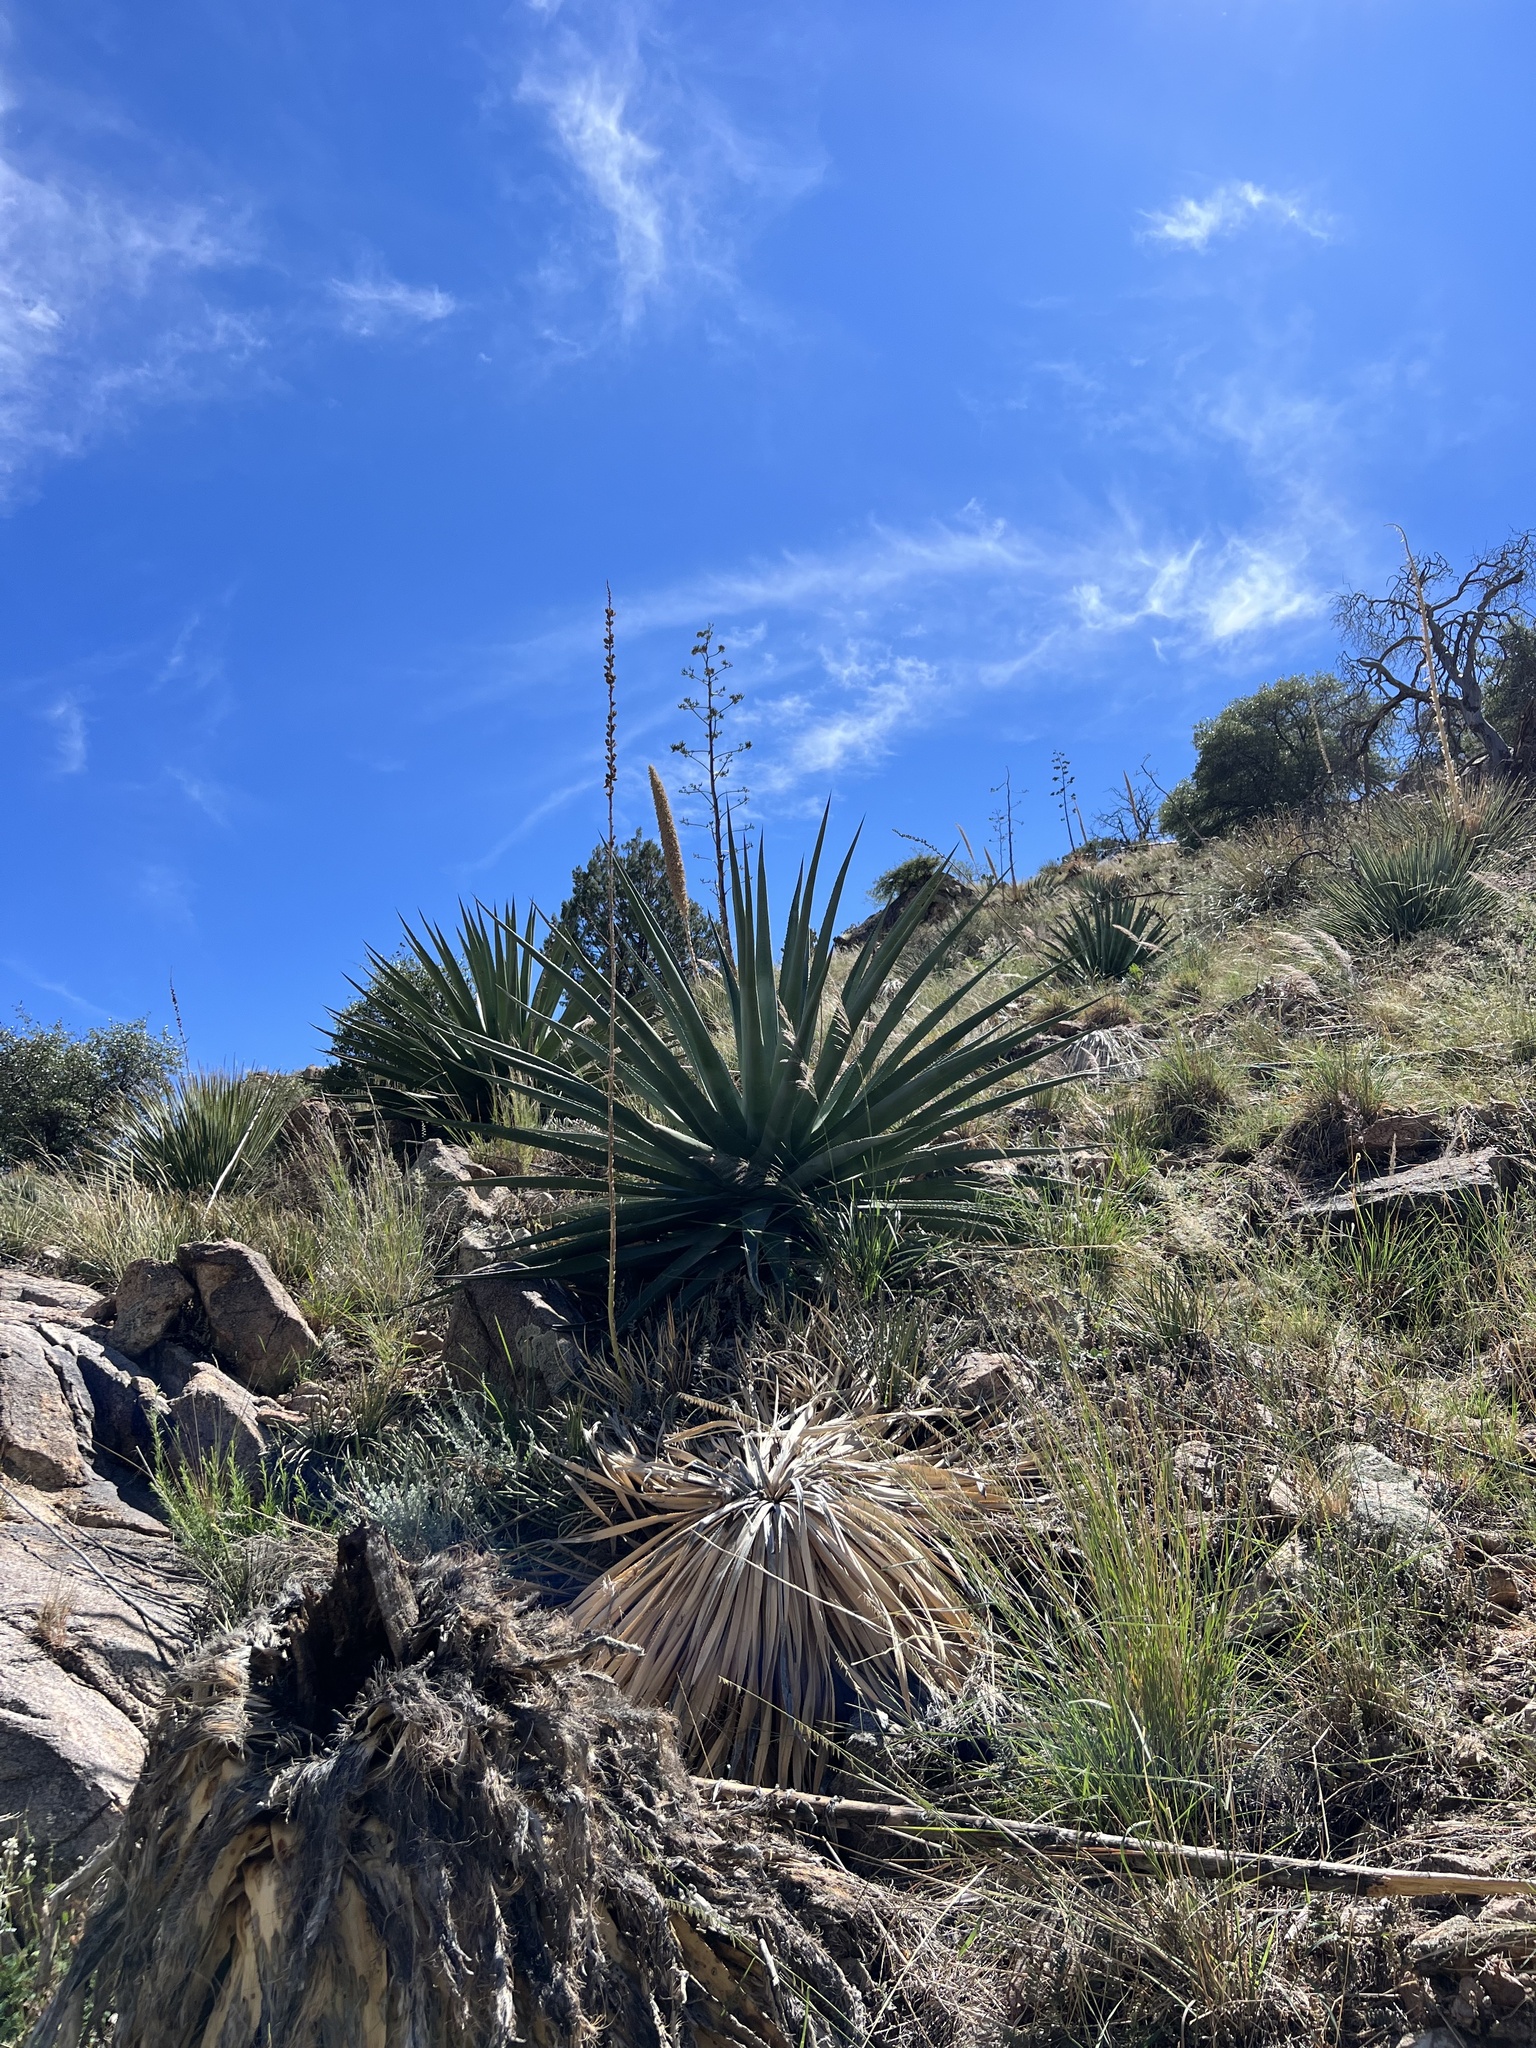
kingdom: Plantae
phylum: Tracheophyta
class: Liliopsida
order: Asparagales
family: Asparagaceae
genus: Agave
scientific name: Agave palmeri
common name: Palmer agave
